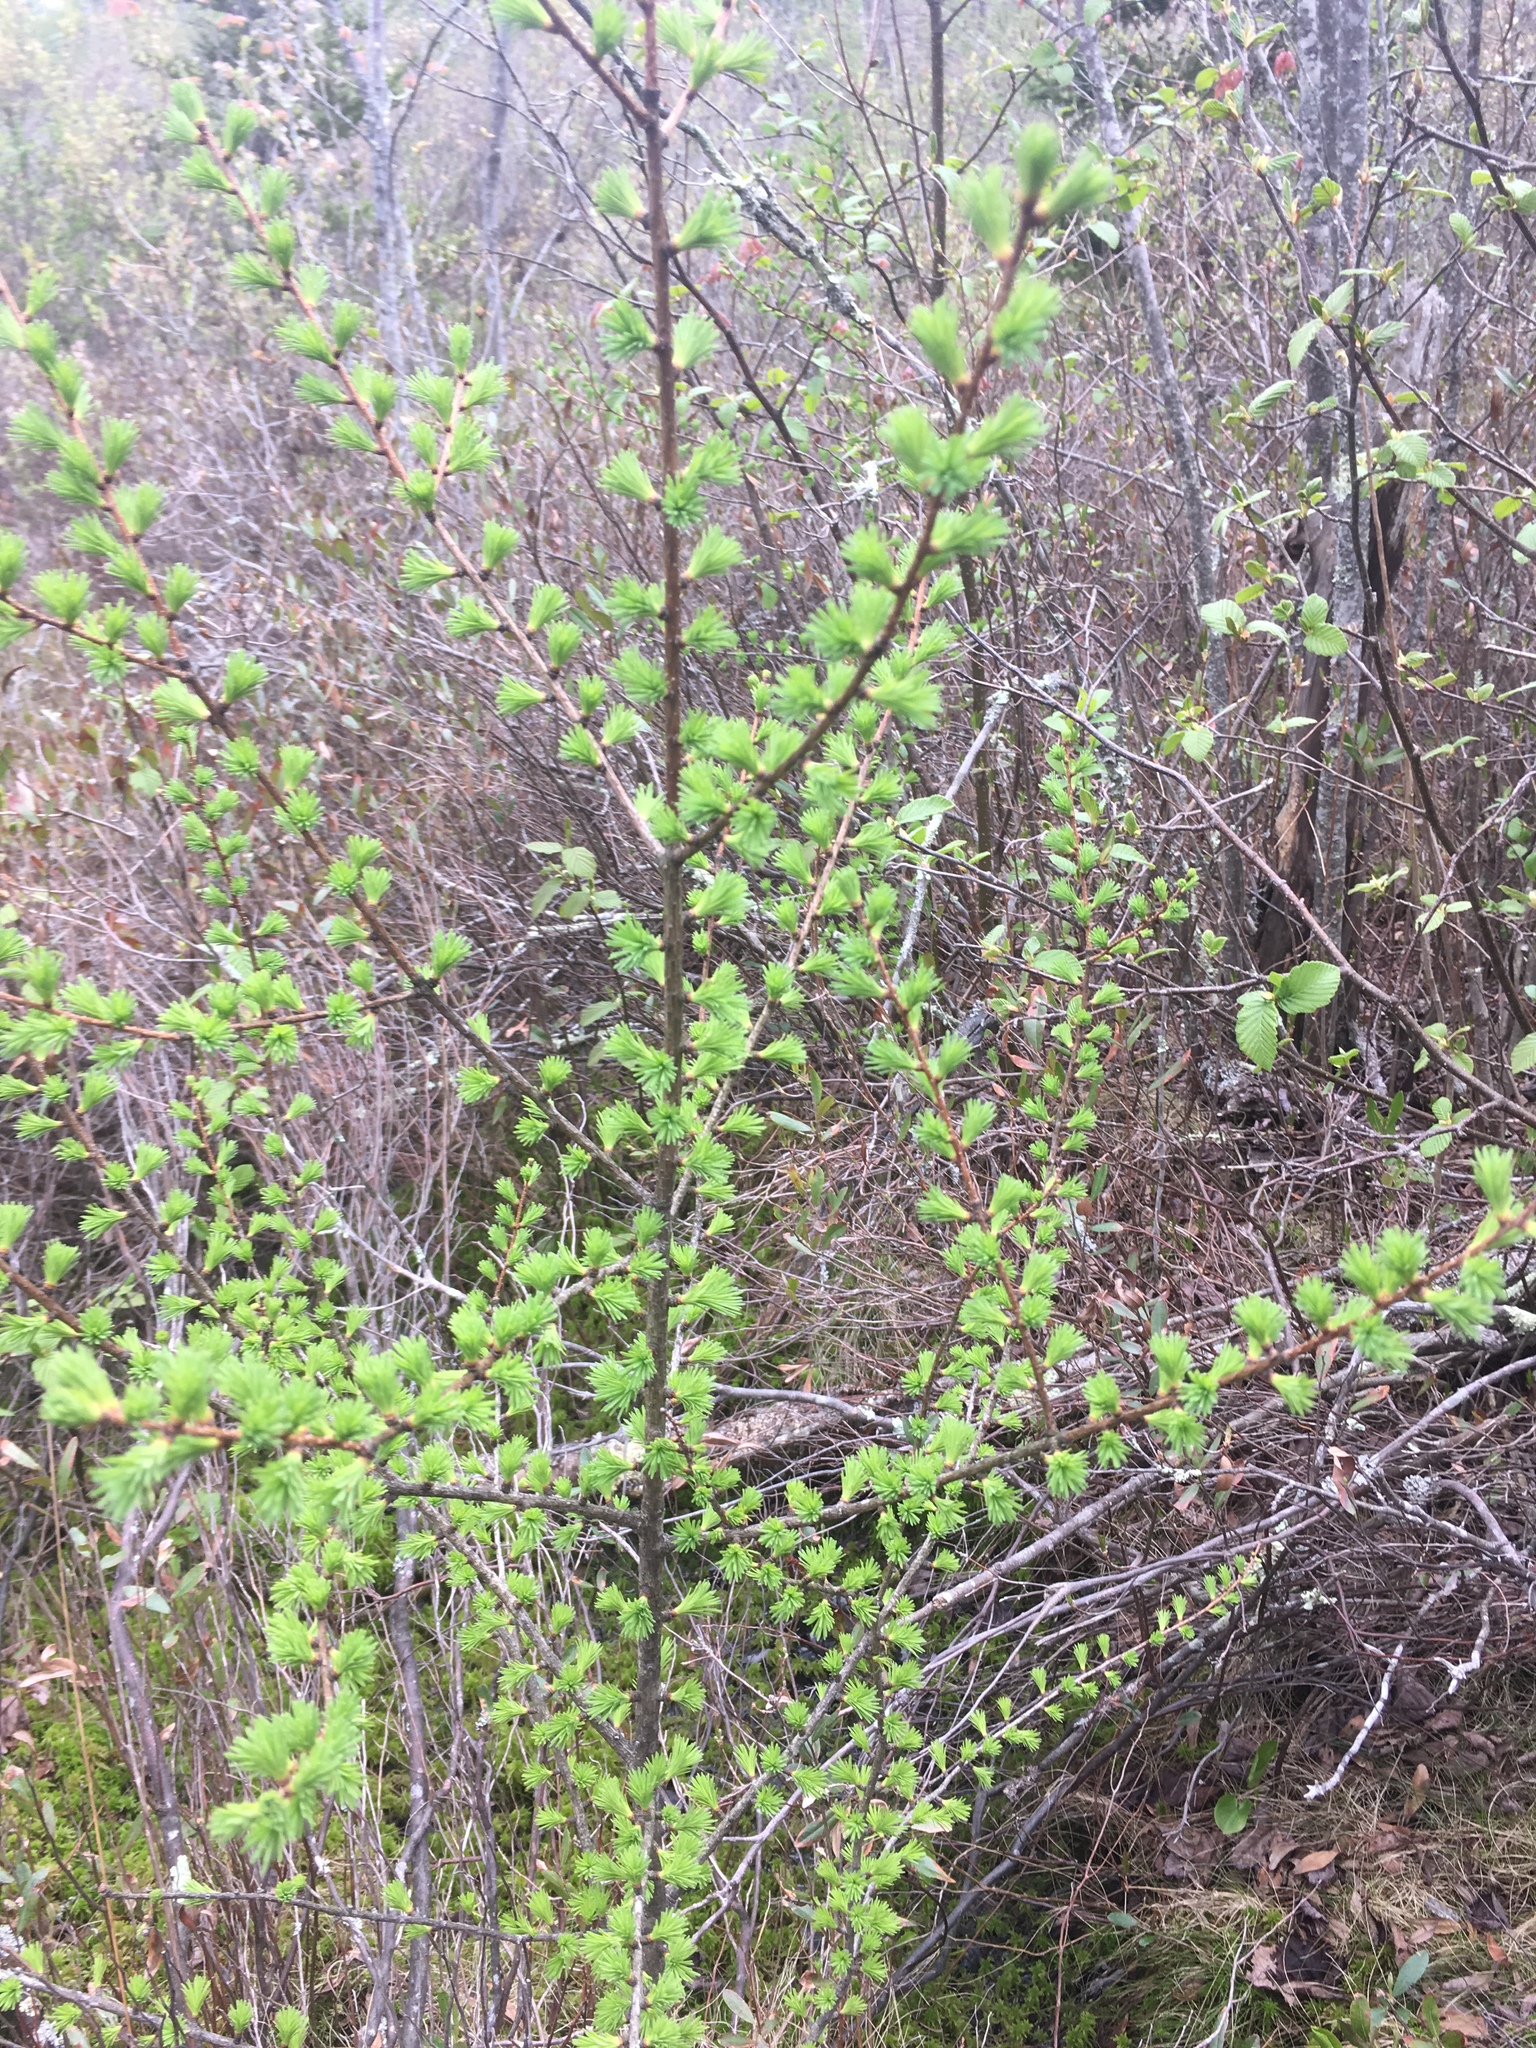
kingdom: Plantae
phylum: Tracheophyta
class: Pinopsida
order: Pinales
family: Pinaceae
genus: Larix
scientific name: Larix laricina
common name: American larch
